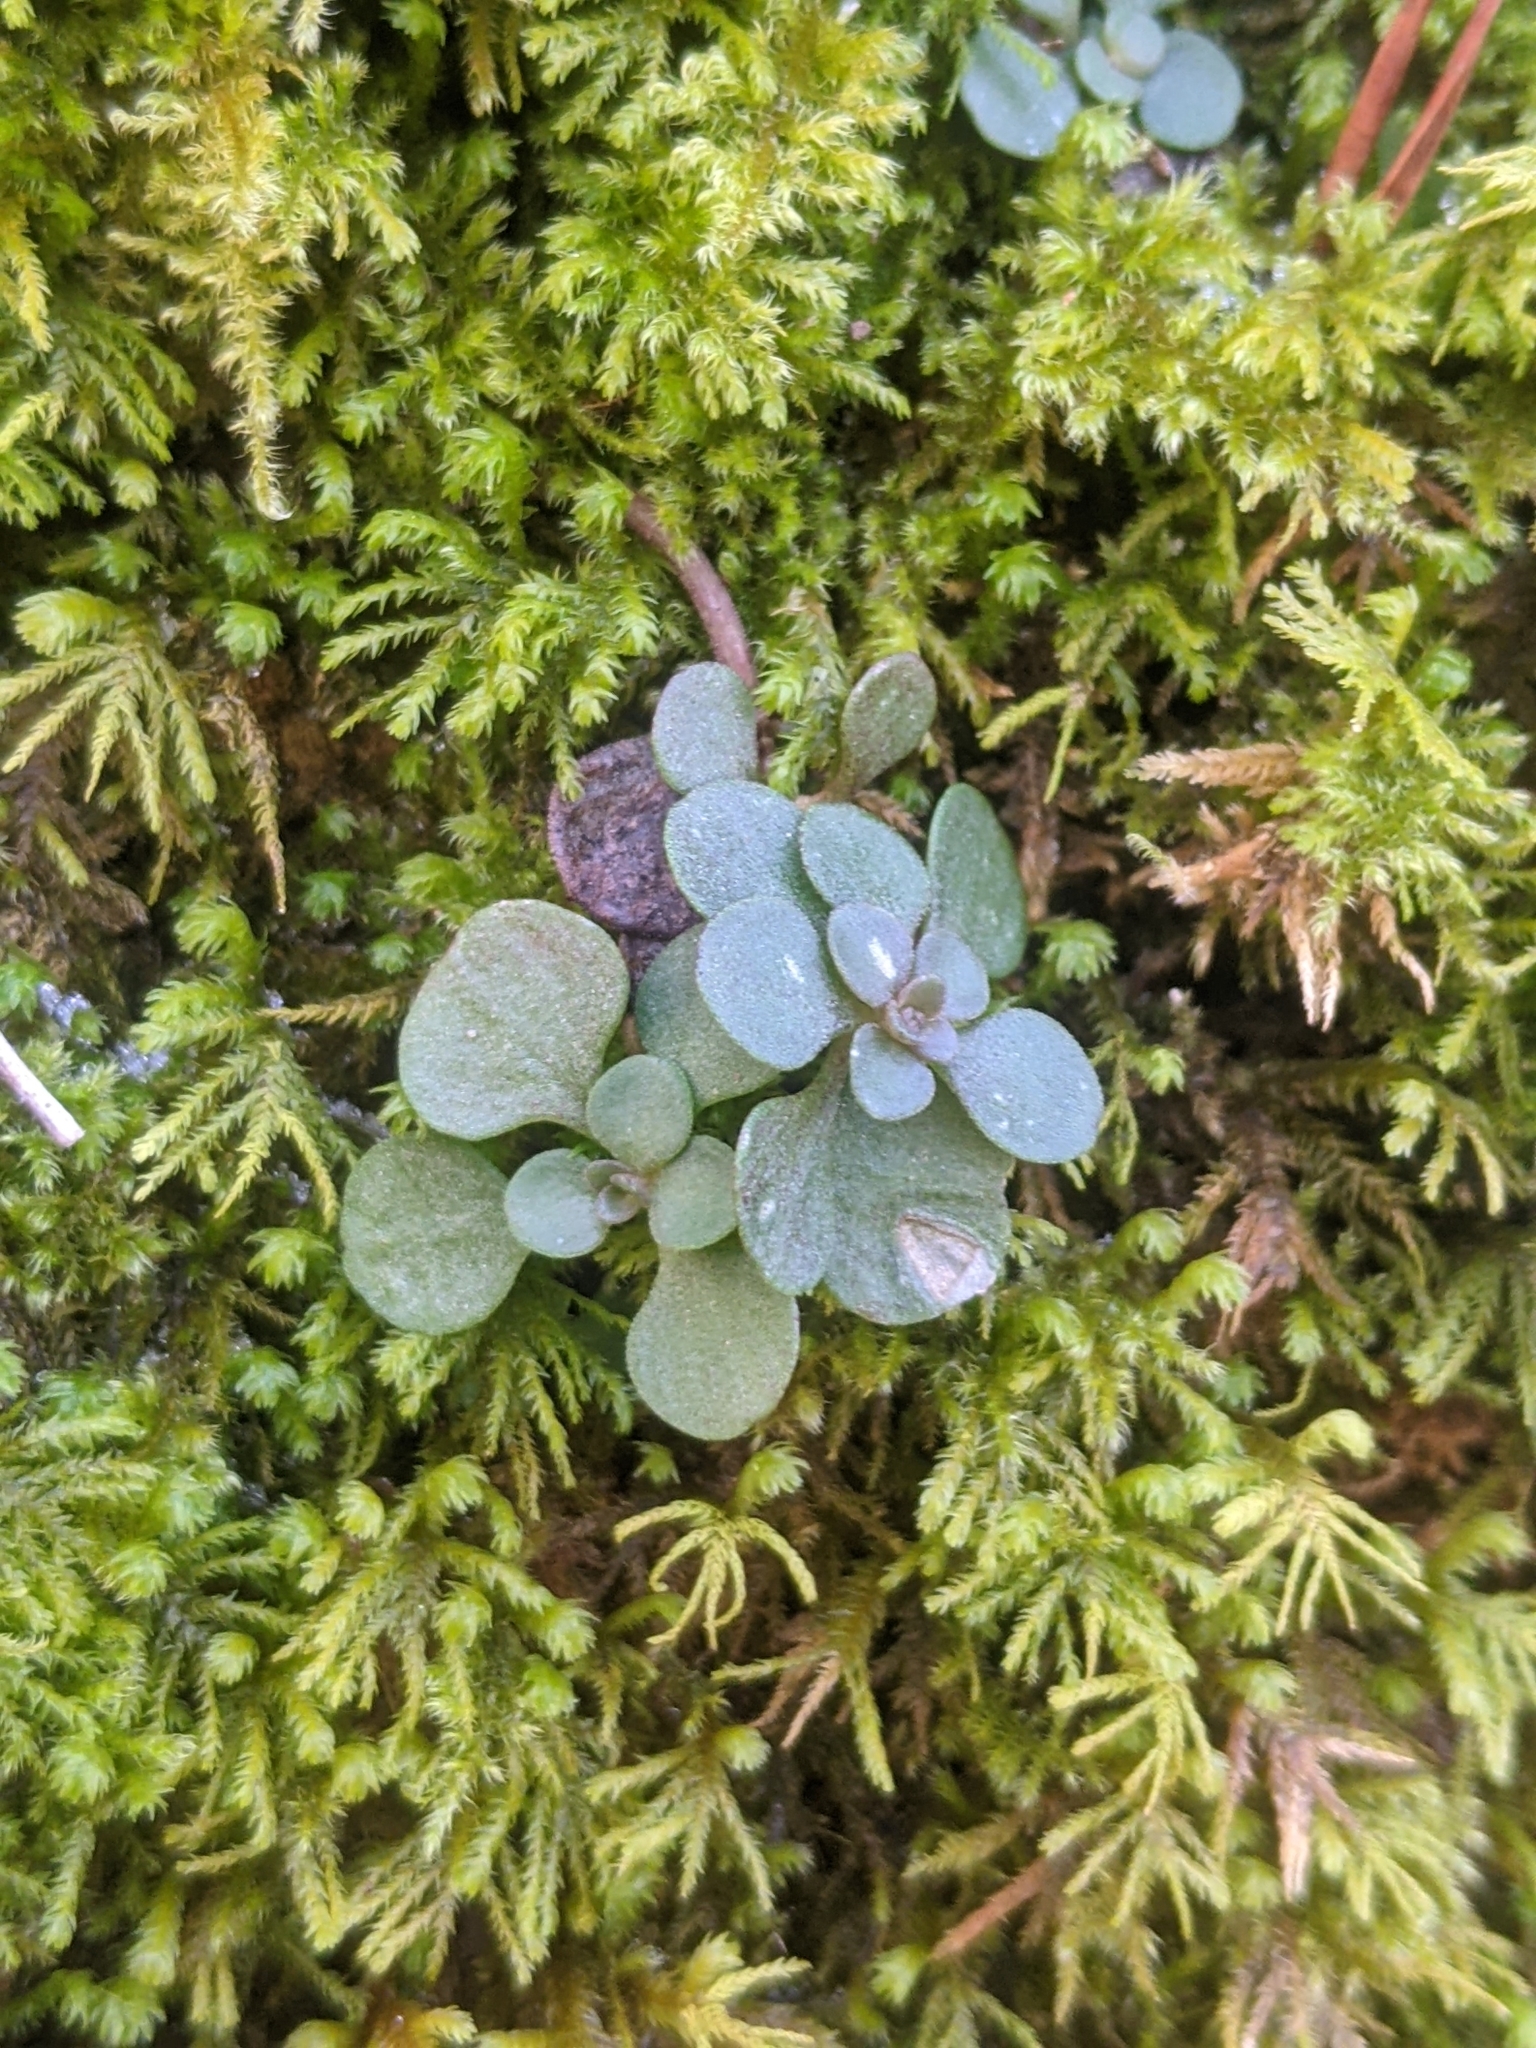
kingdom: Plantae
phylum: Tracheophyta
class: Magnoliopsida
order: Saxifragales
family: Crassulaceae
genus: Sedum
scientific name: Sedum ternatum
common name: Wild stonecrop
